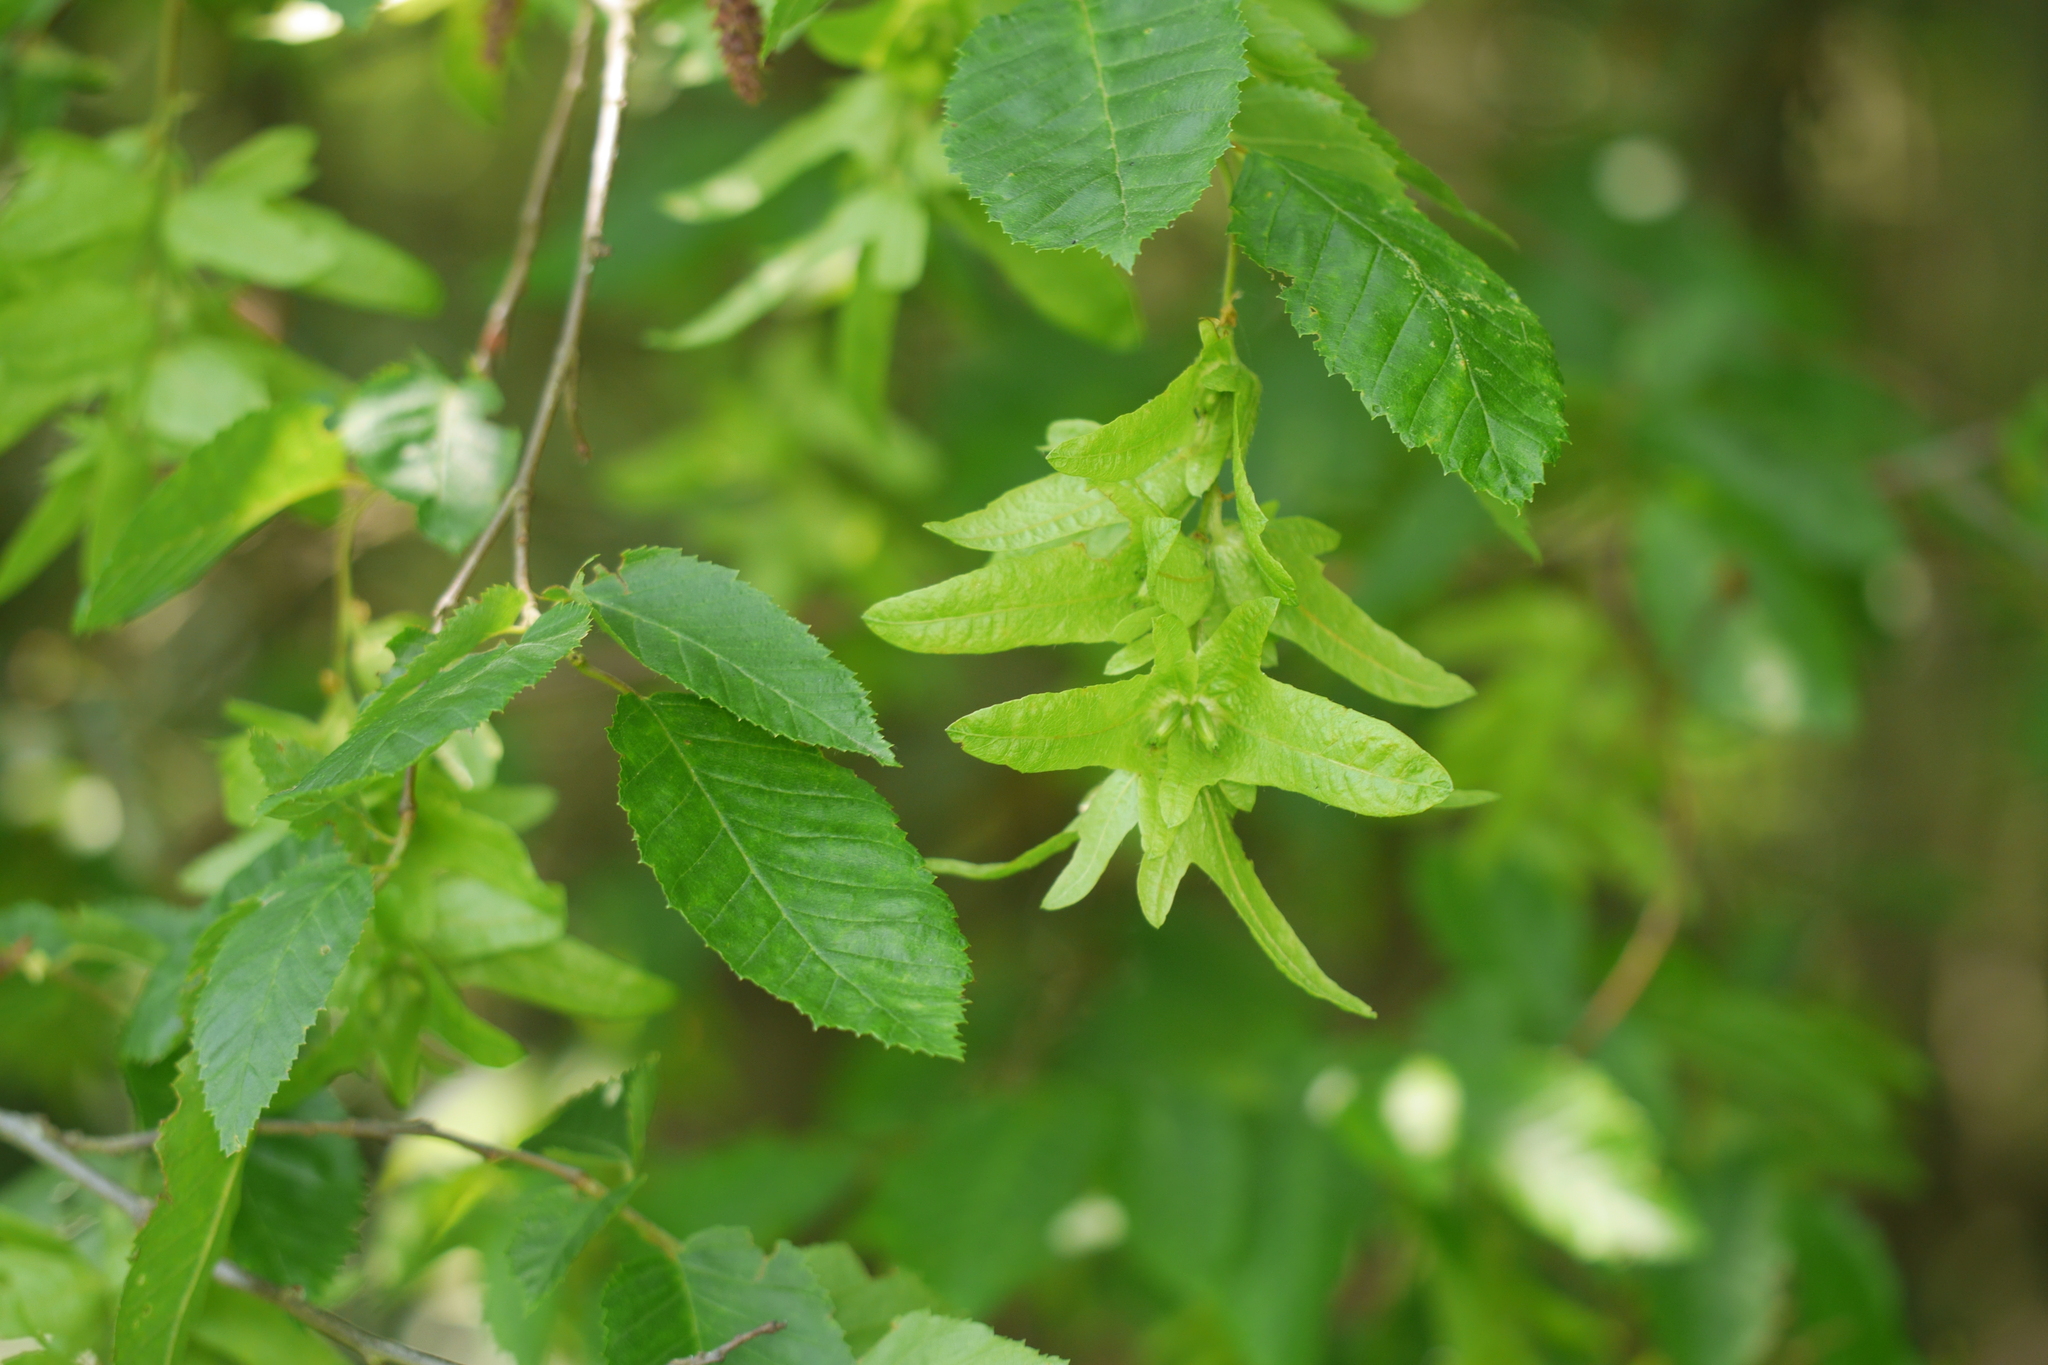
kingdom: Plantae
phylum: Tracheophyta
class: Magnoliopsida
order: Fagales
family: Betulaceae
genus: Carpinus
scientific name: Carpinus betulus
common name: Hornbeam
